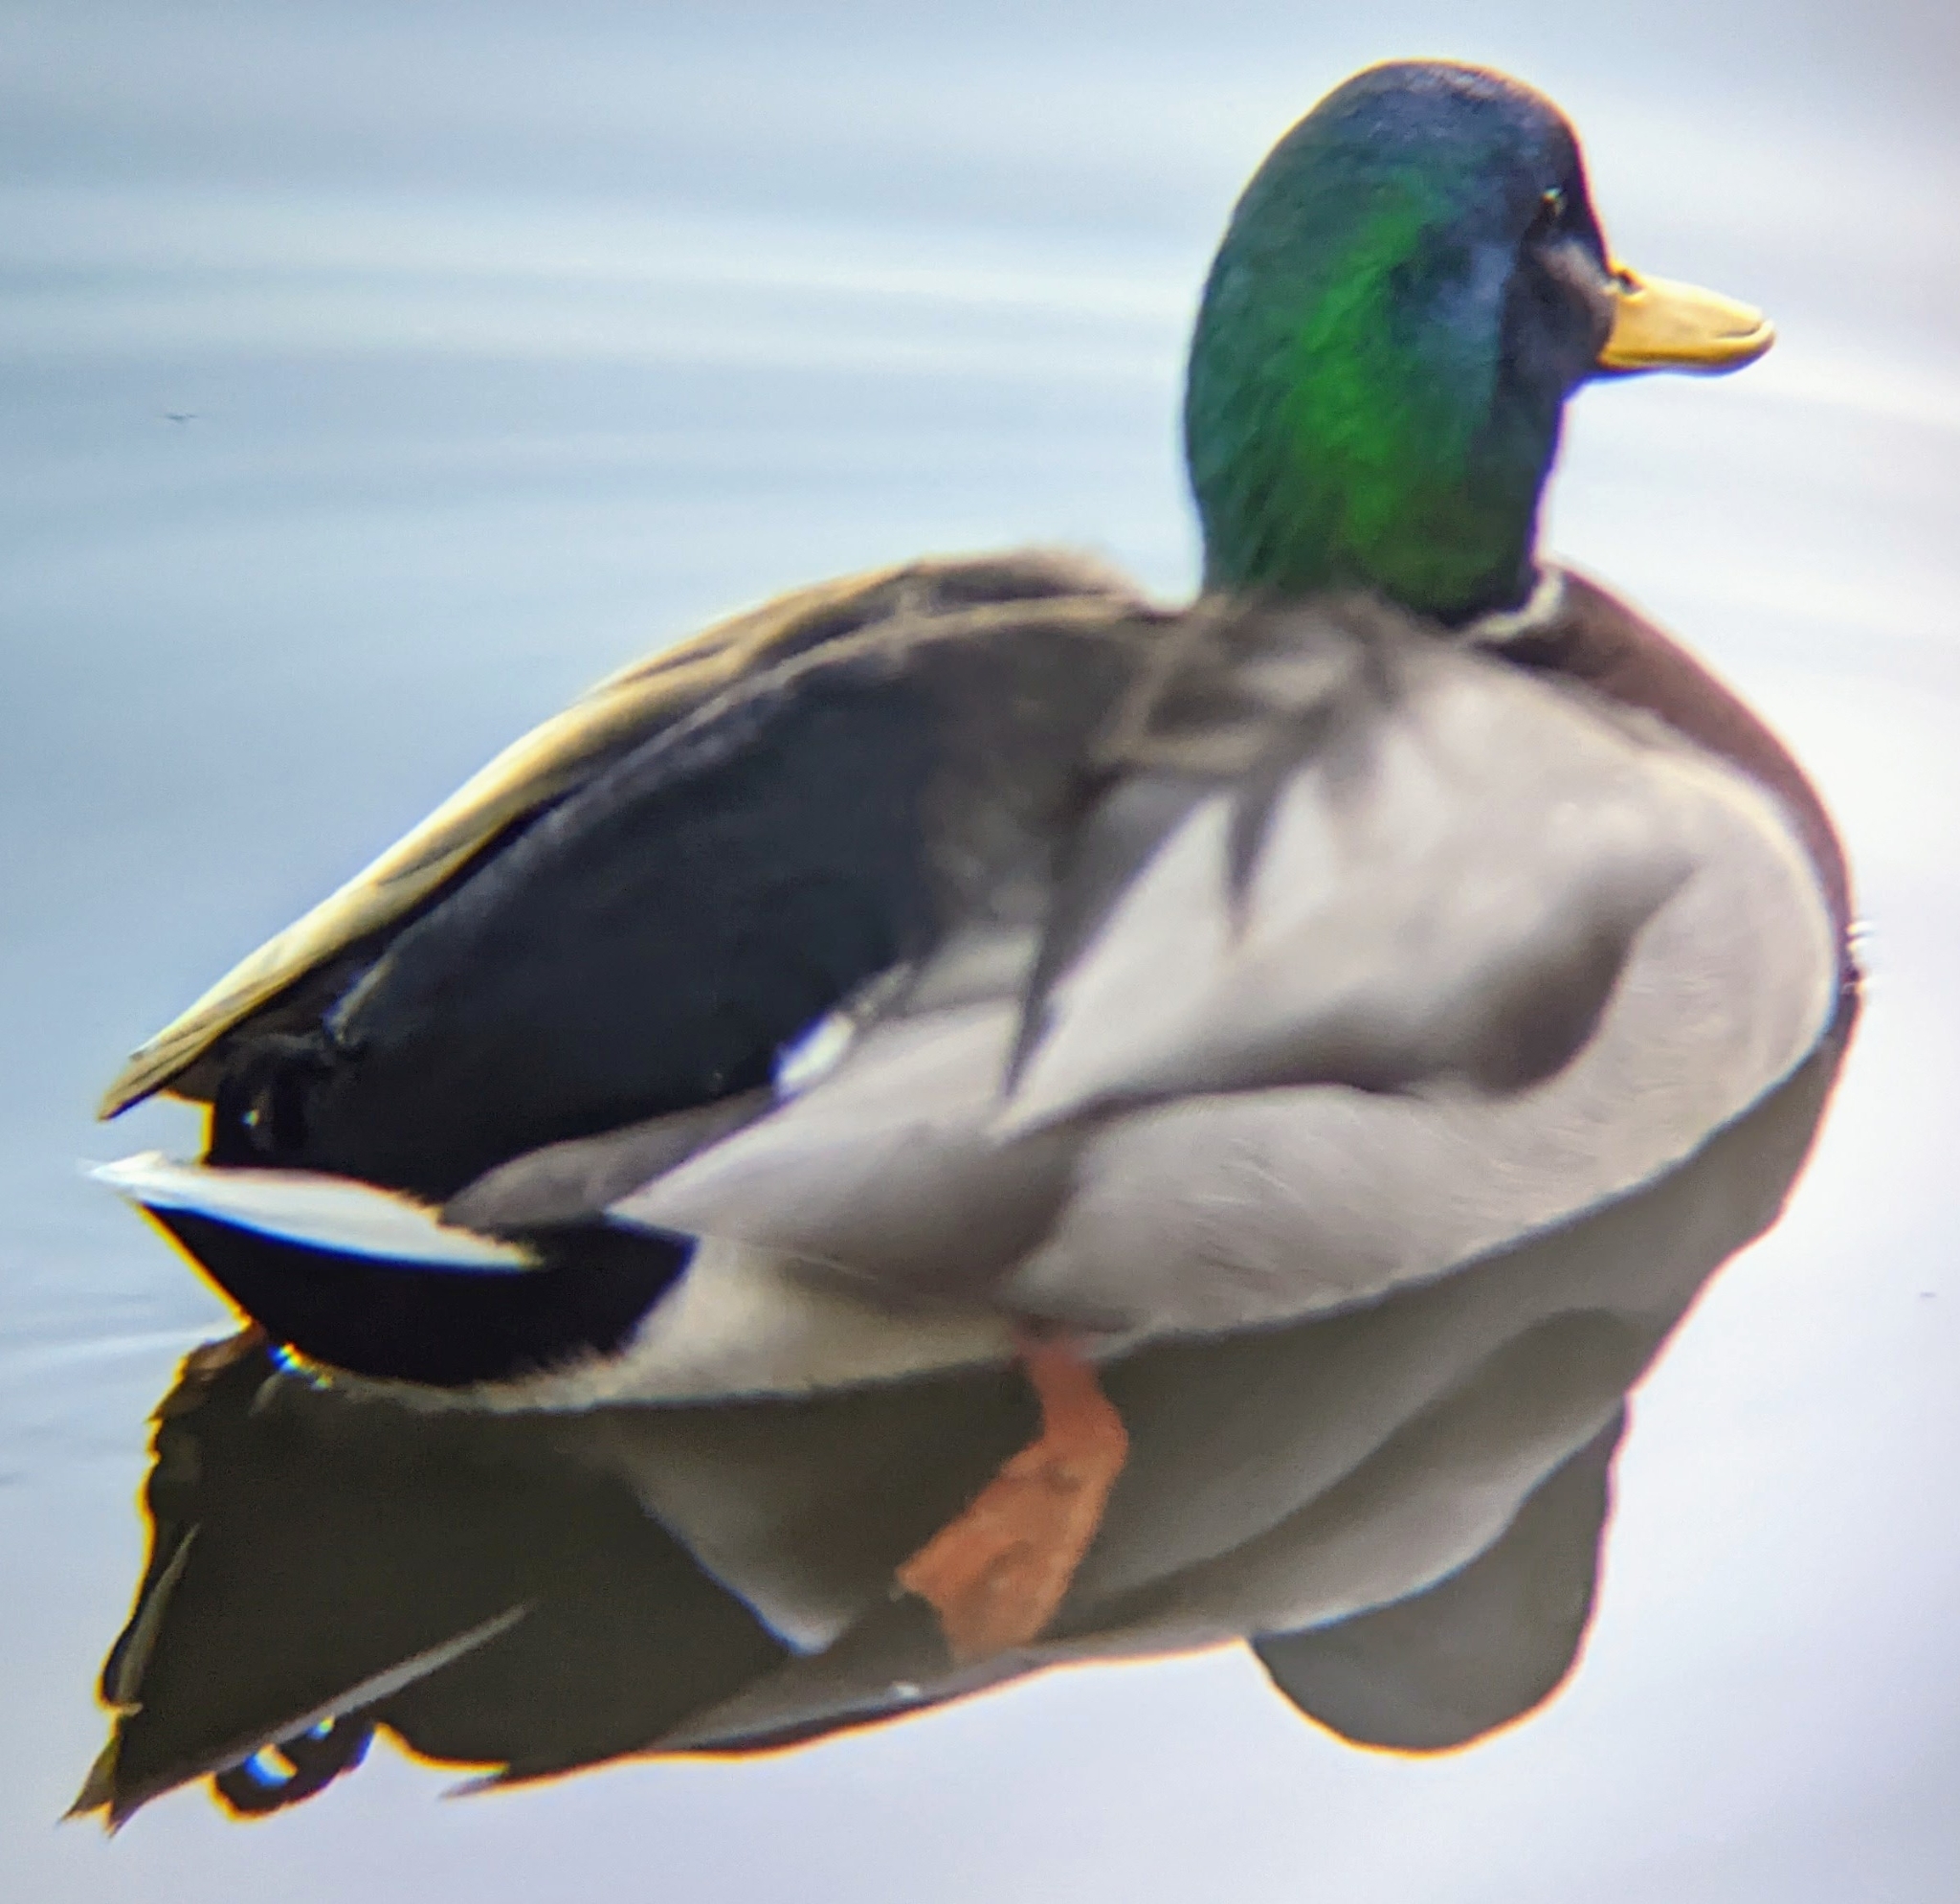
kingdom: Animalia
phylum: Chordata
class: Aves
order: Anseriformes
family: Anatidae
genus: Anas
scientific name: Anas platyrhynchos
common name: Mallard
